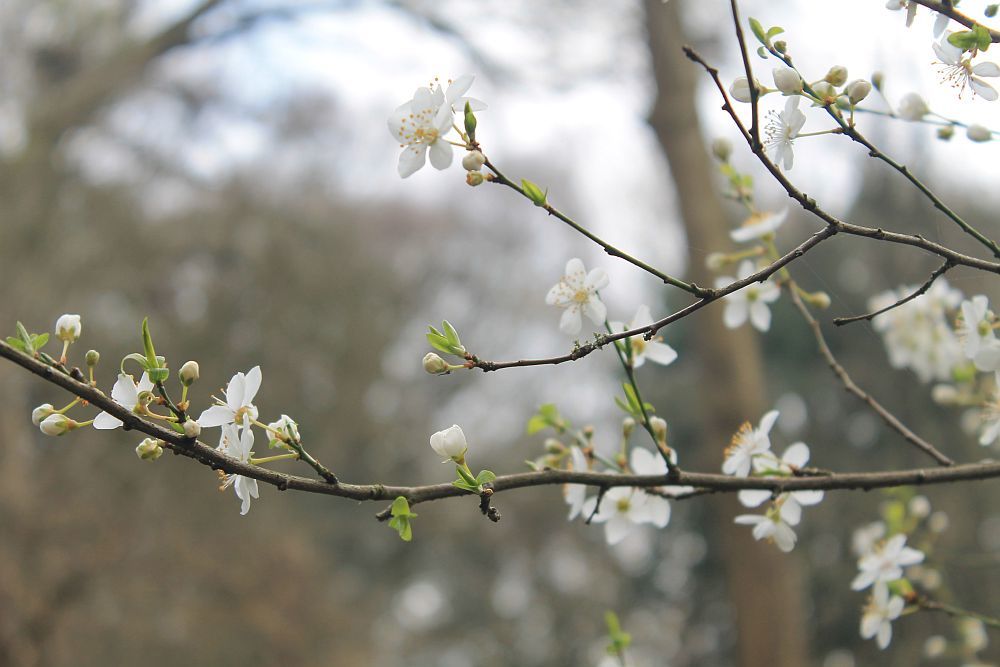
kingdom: Plantae
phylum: Tracheophyta
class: Magnoliopsida
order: Rosales
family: Rosaceae
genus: Prunus
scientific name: Prunus cerasifera
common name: Cherry plum
